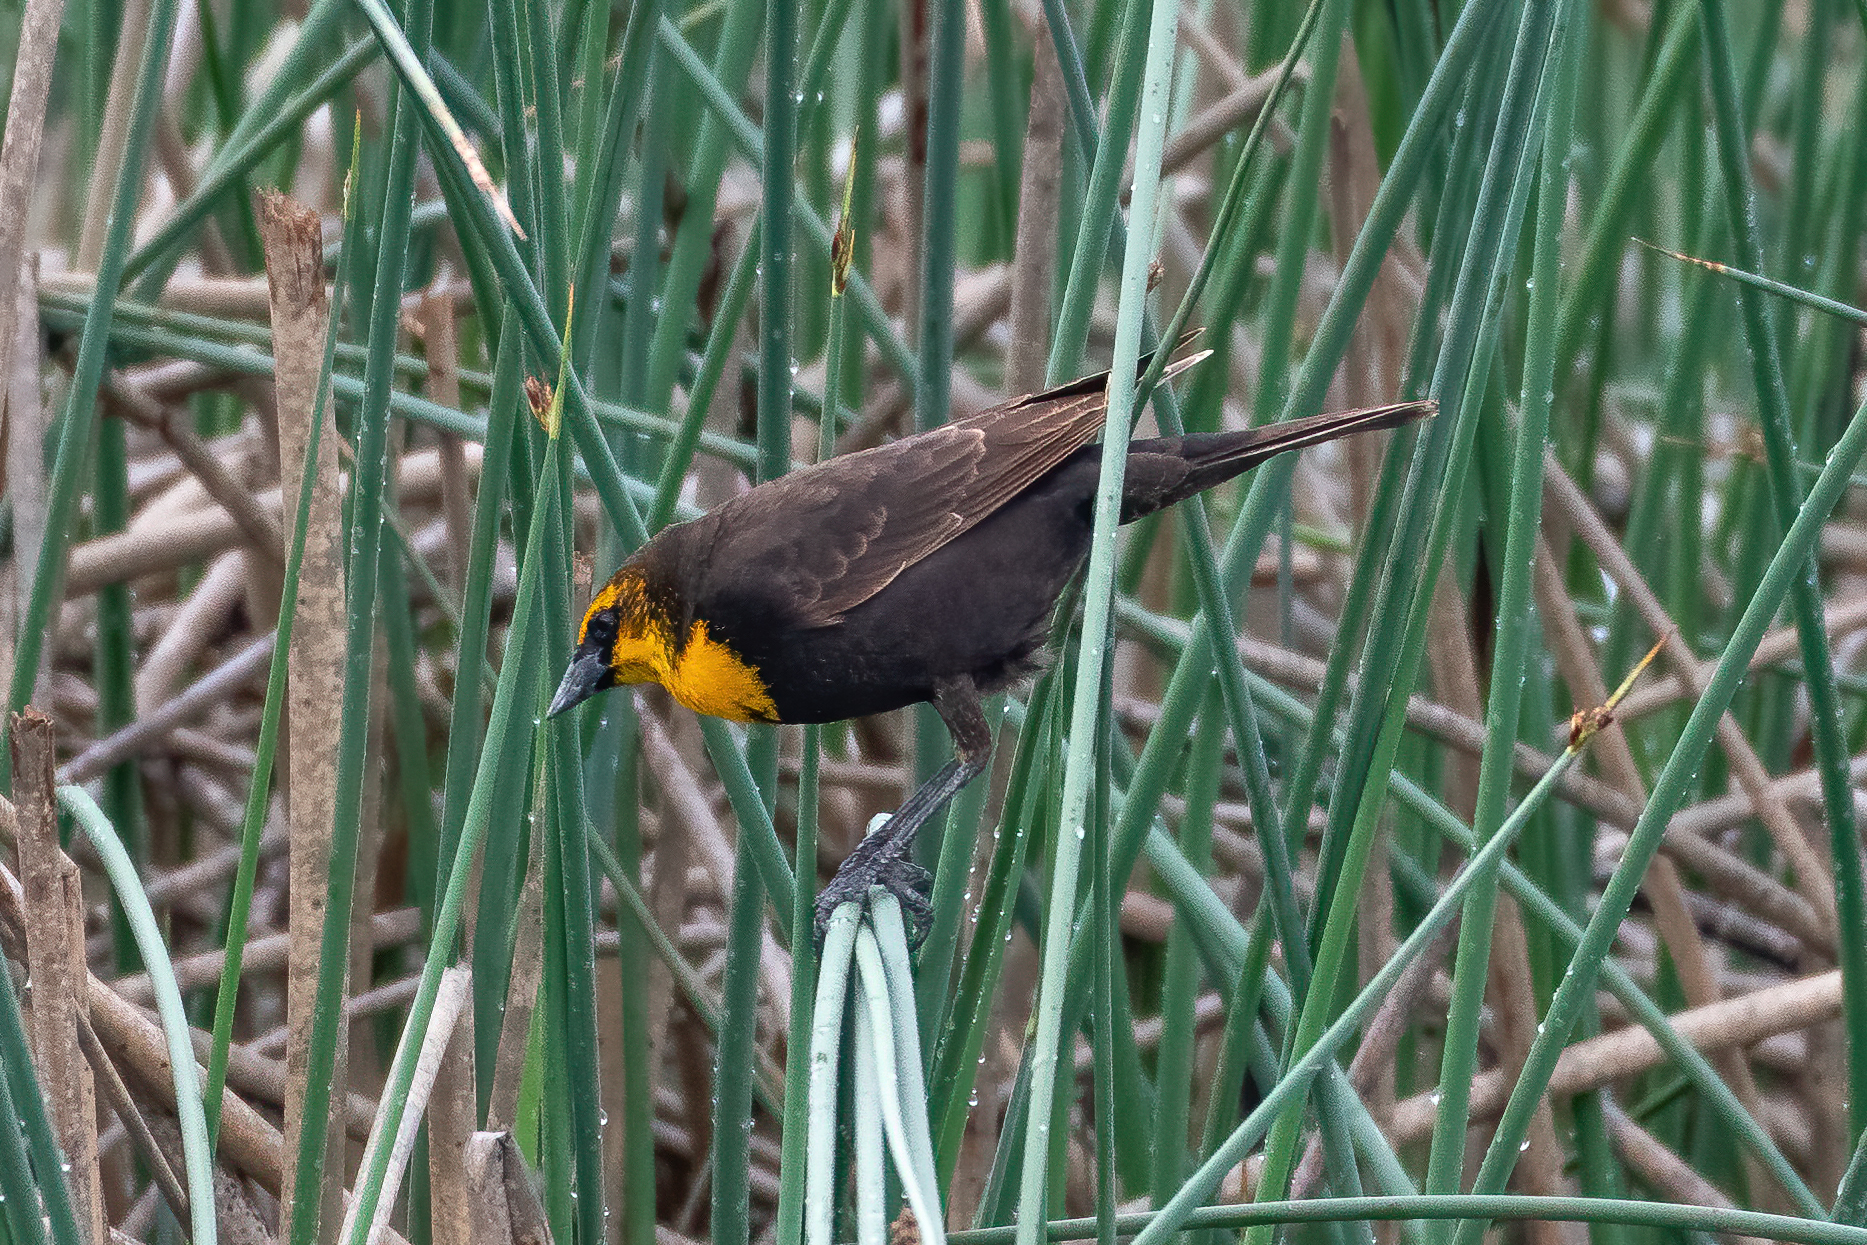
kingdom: Animalia
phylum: Chordata
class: Aves
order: Passeriformes
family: Icteridae
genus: Xanthocephalus
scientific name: Xanthocephalus xanthocephalus
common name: Yellow-headed blackbird
